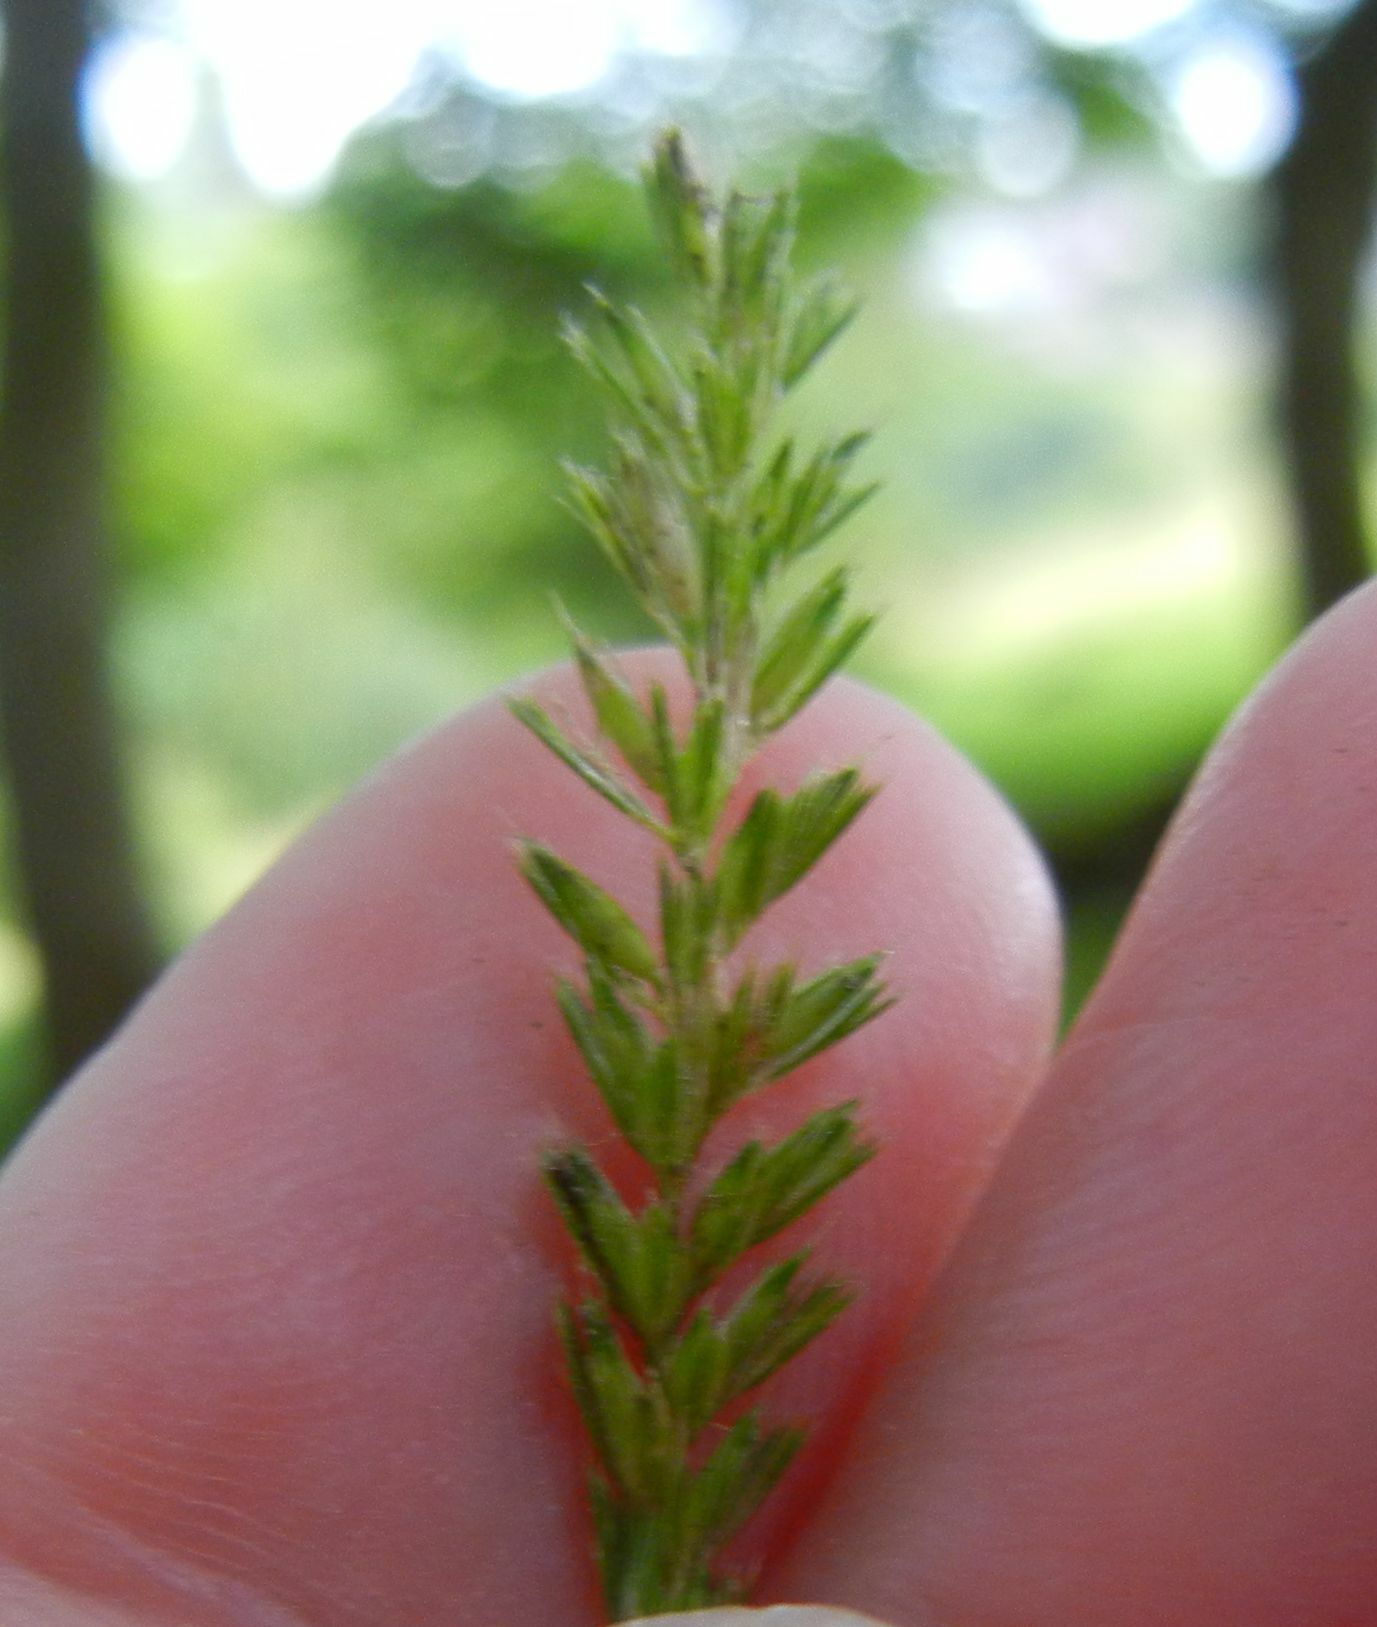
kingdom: Plantae
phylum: Tracheophyta
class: Liliopsida
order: Poales
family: Poaceae
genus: Cynosurus
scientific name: Cynosurus cristatus
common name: Crested dog's-tail
